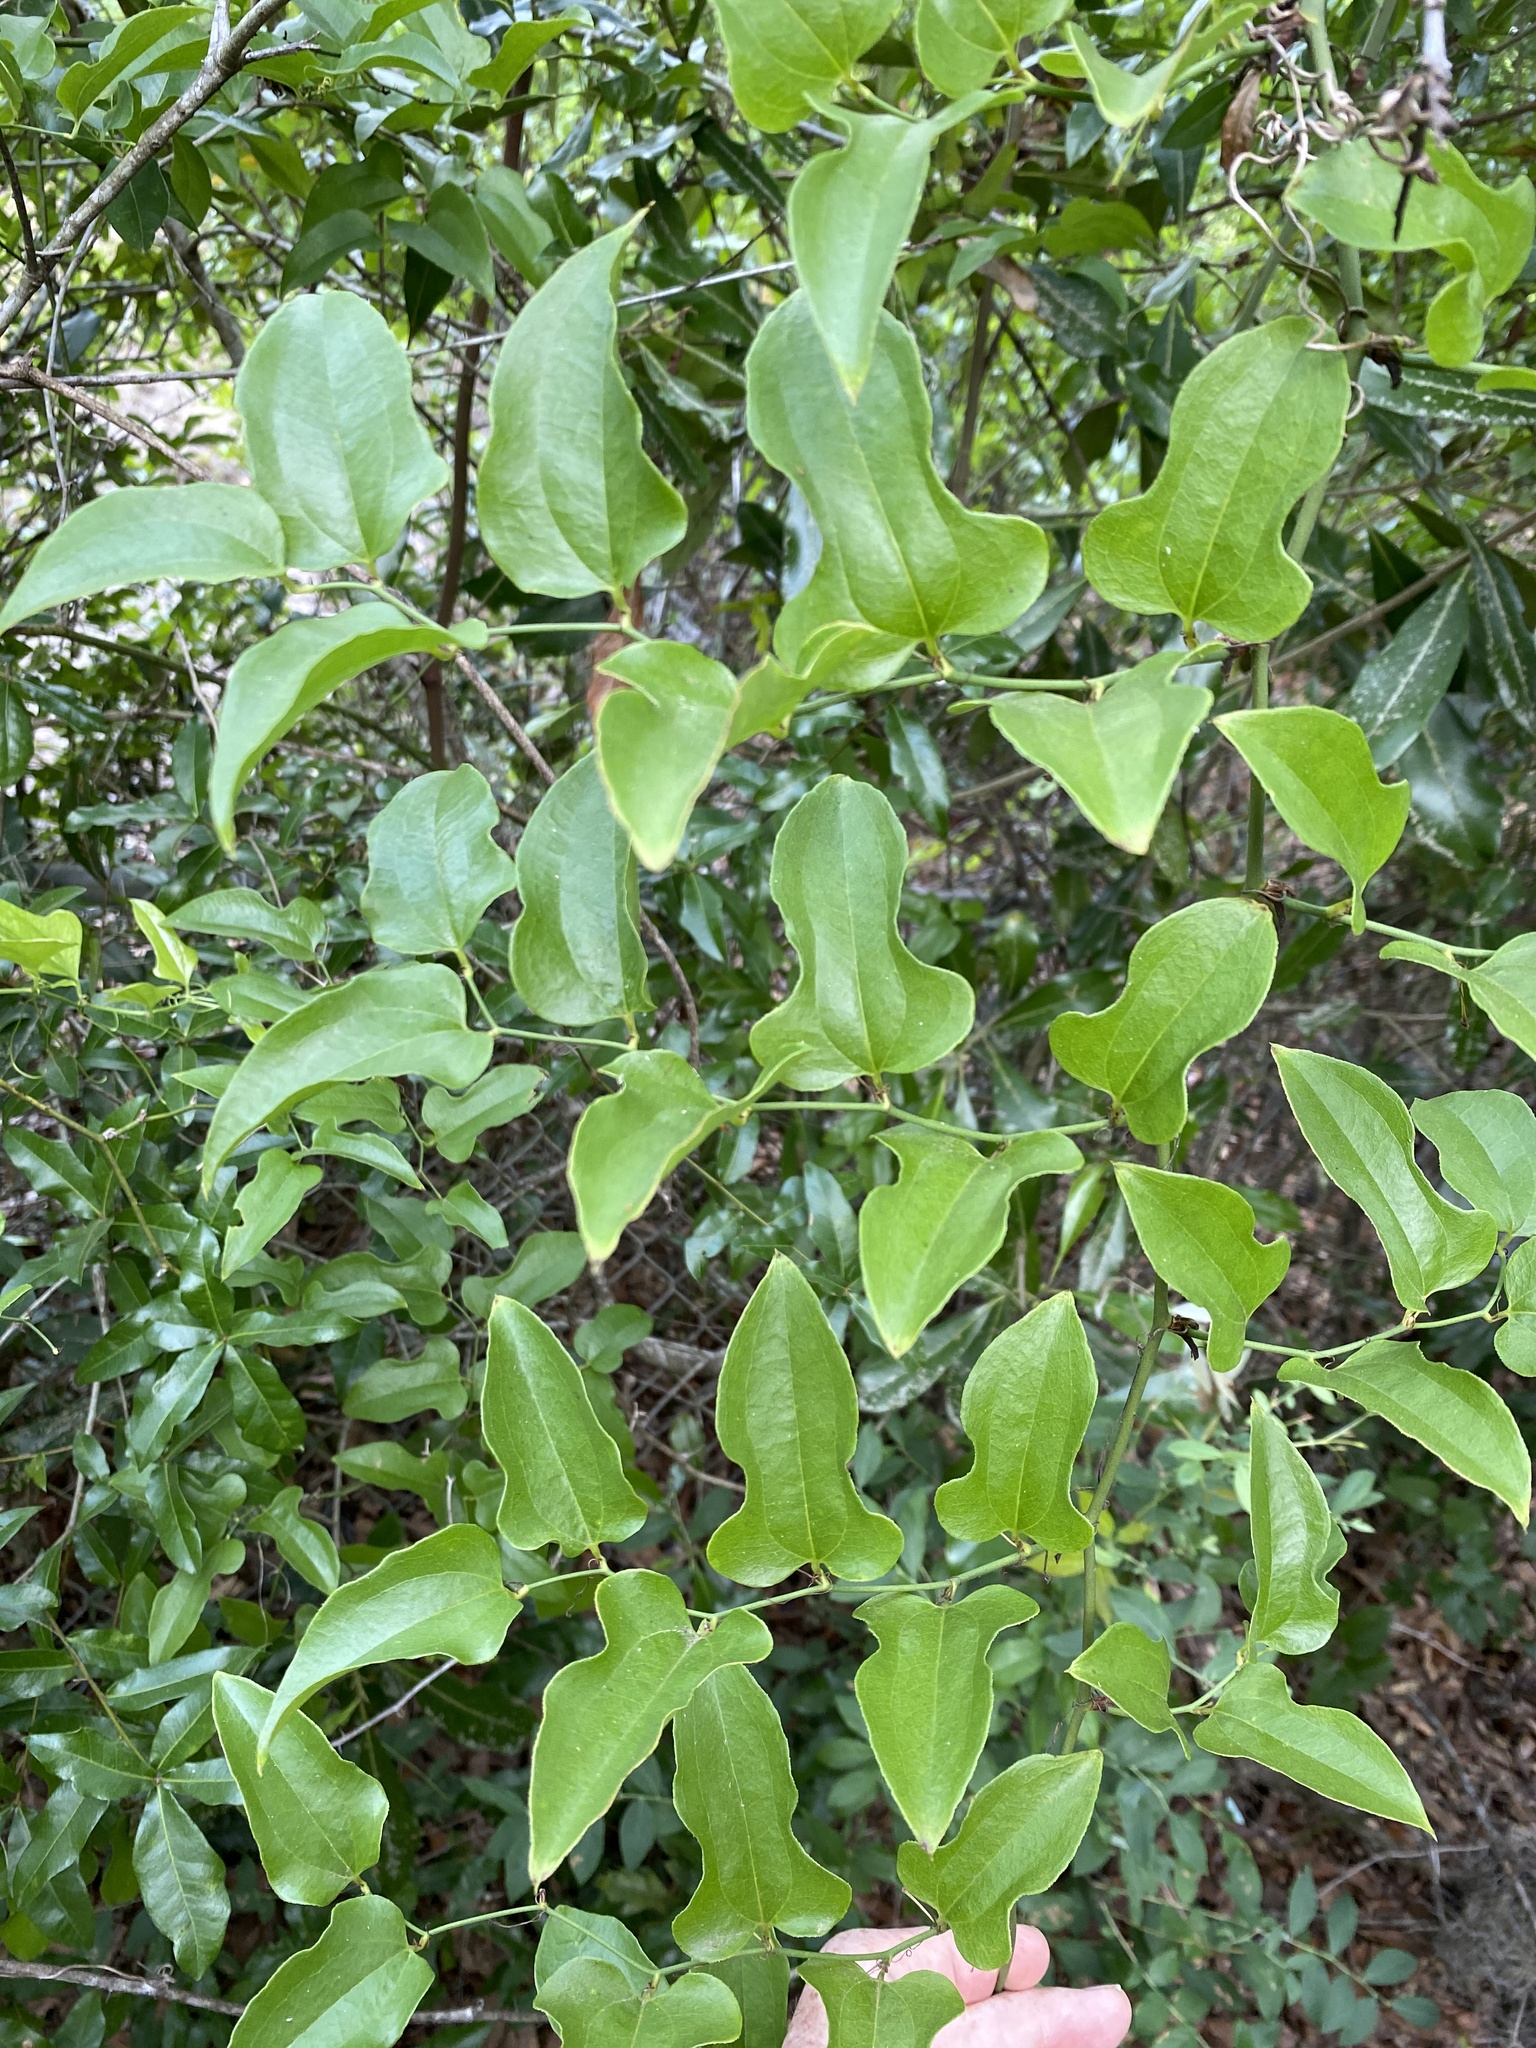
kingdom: Plantae
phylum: Tracheophyta
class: Liliopsida
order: Liliales
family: Smilacaceae
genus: Smilax
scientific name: Smilax tamnoides
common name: Hellfetter
